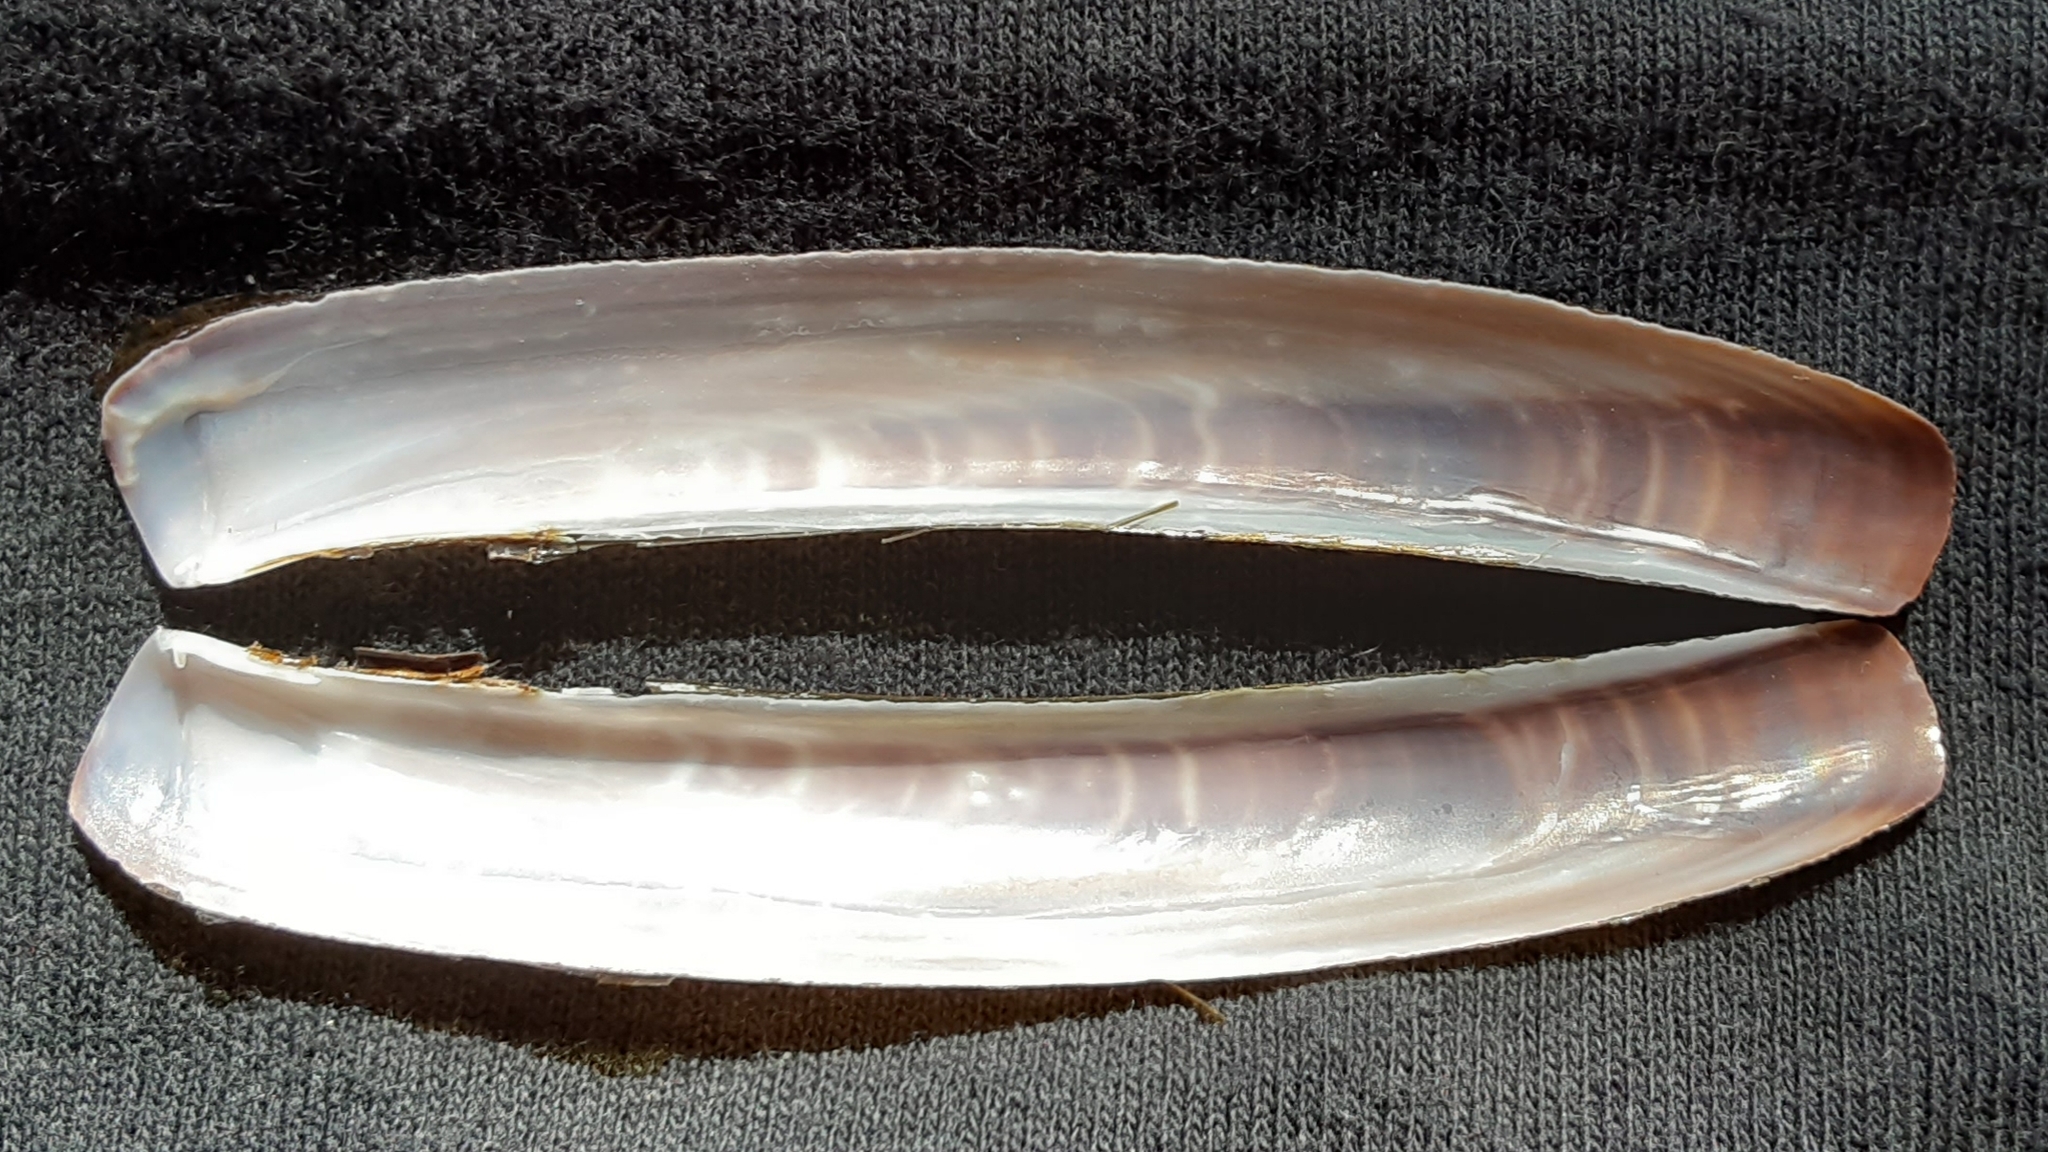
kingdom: Animalia
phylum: Mollusca
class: Bivalvia
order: Adapedonta
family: Pharidae
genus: Ensis
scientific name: Ensis leei
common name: American jack knife clam
